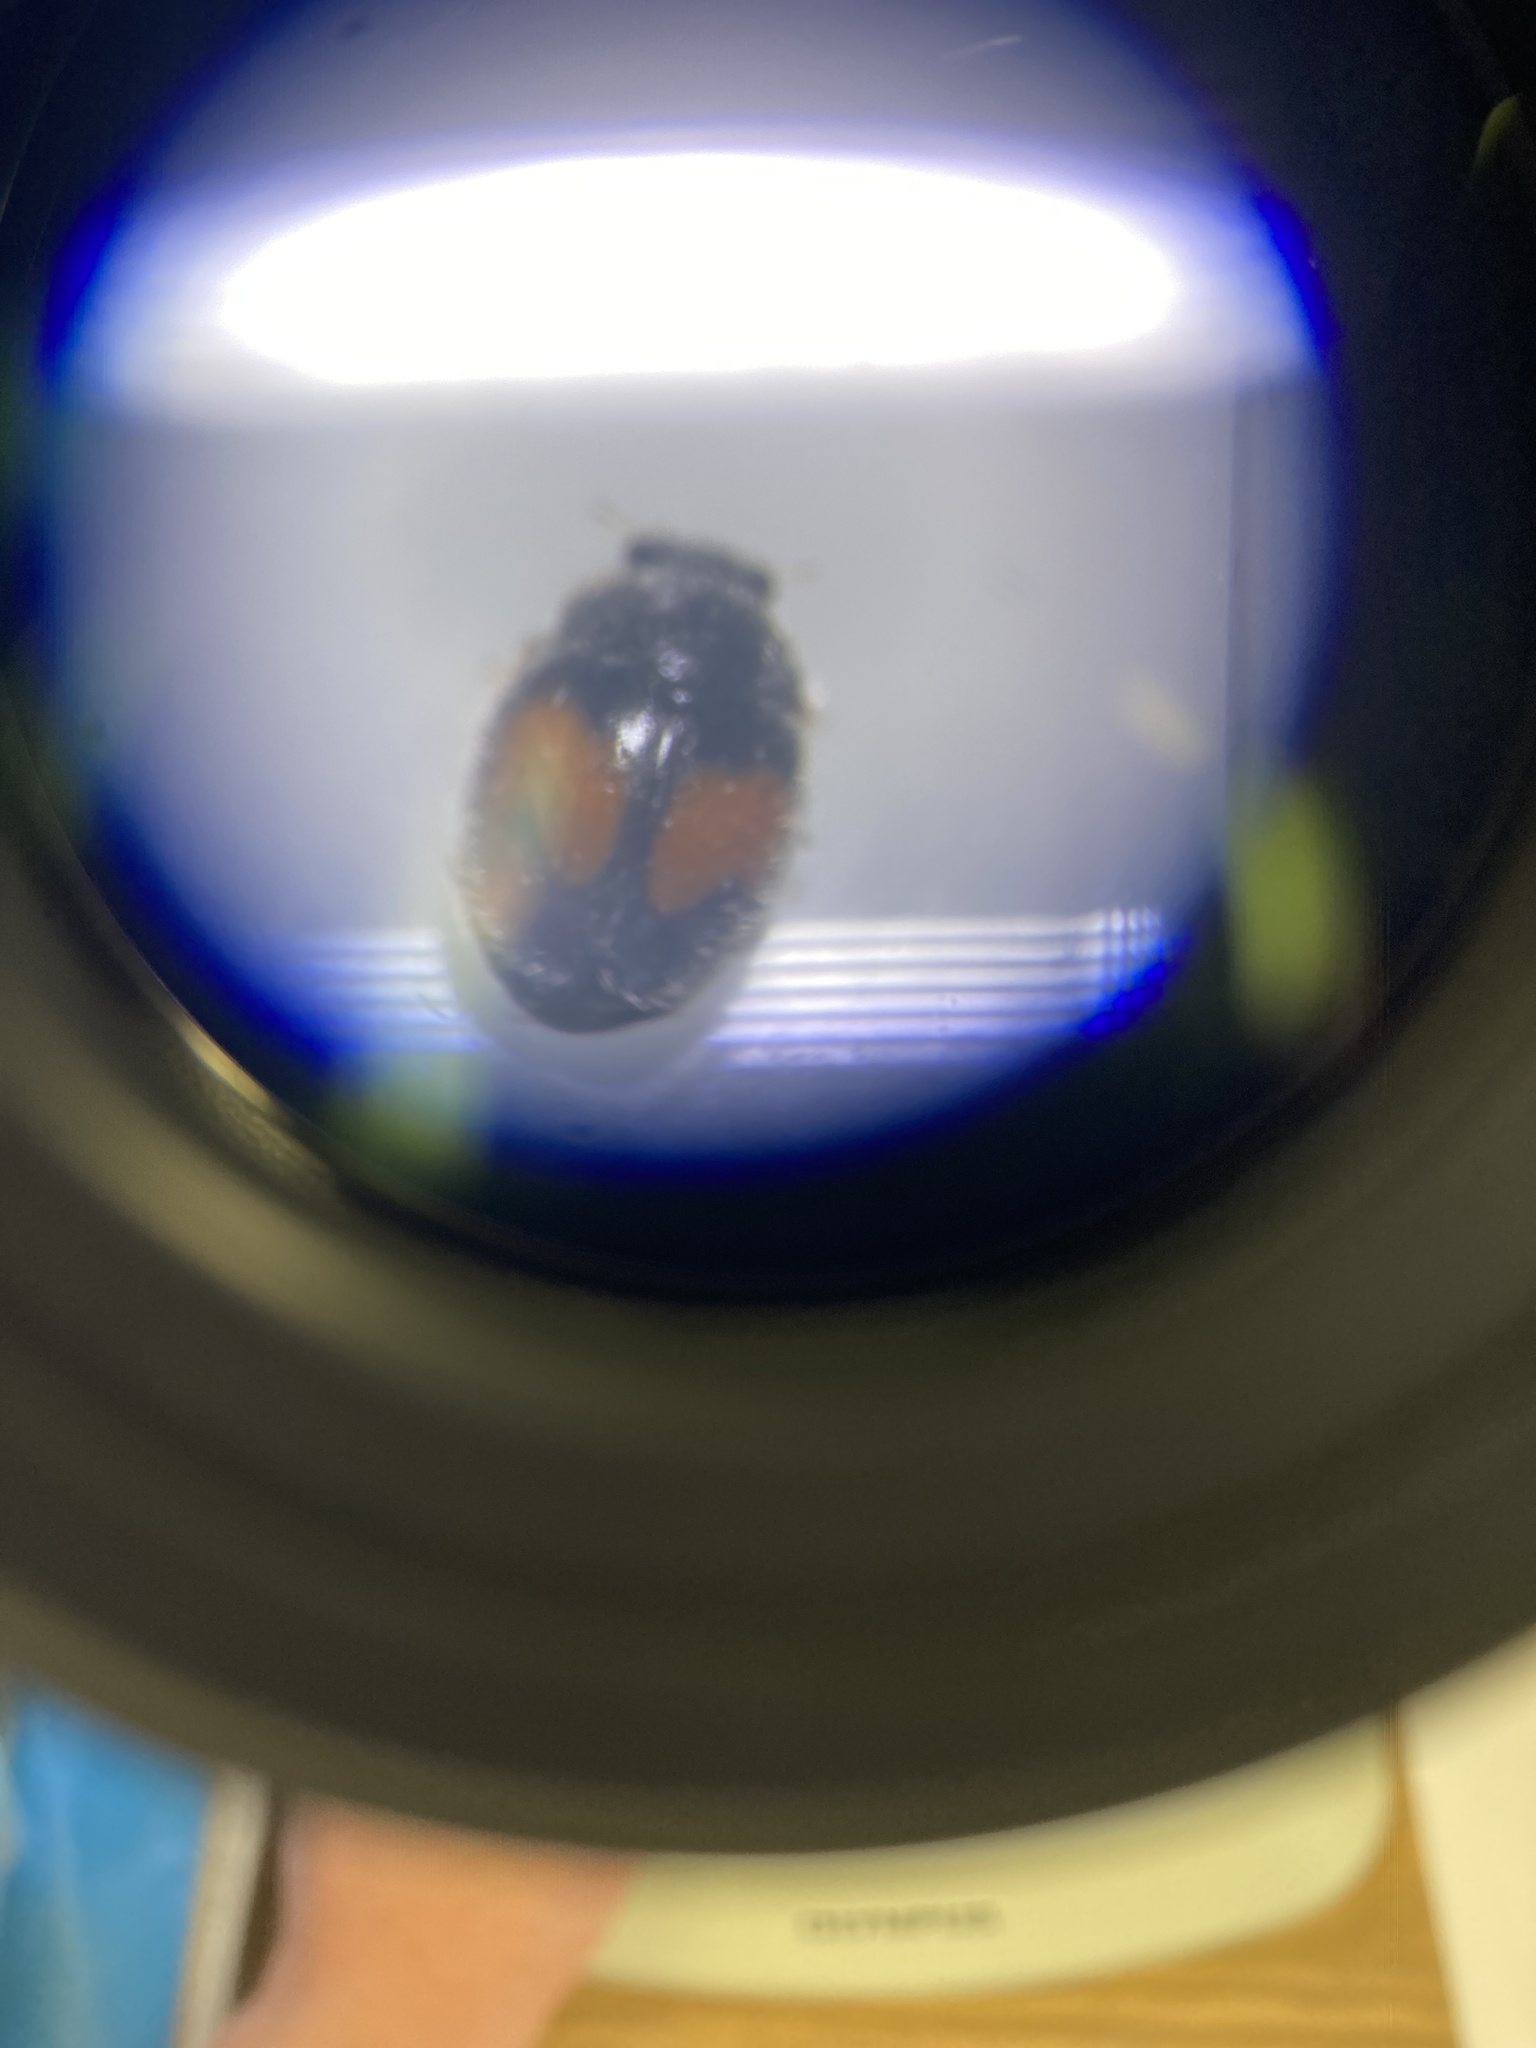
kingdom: Animalia
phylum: Arthropoda
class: Insecta
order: Coleoptera
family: Coccinellidae
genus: Scymnus
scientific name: Scymnus notescens
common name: Minute two-spotted ladybird beetle
